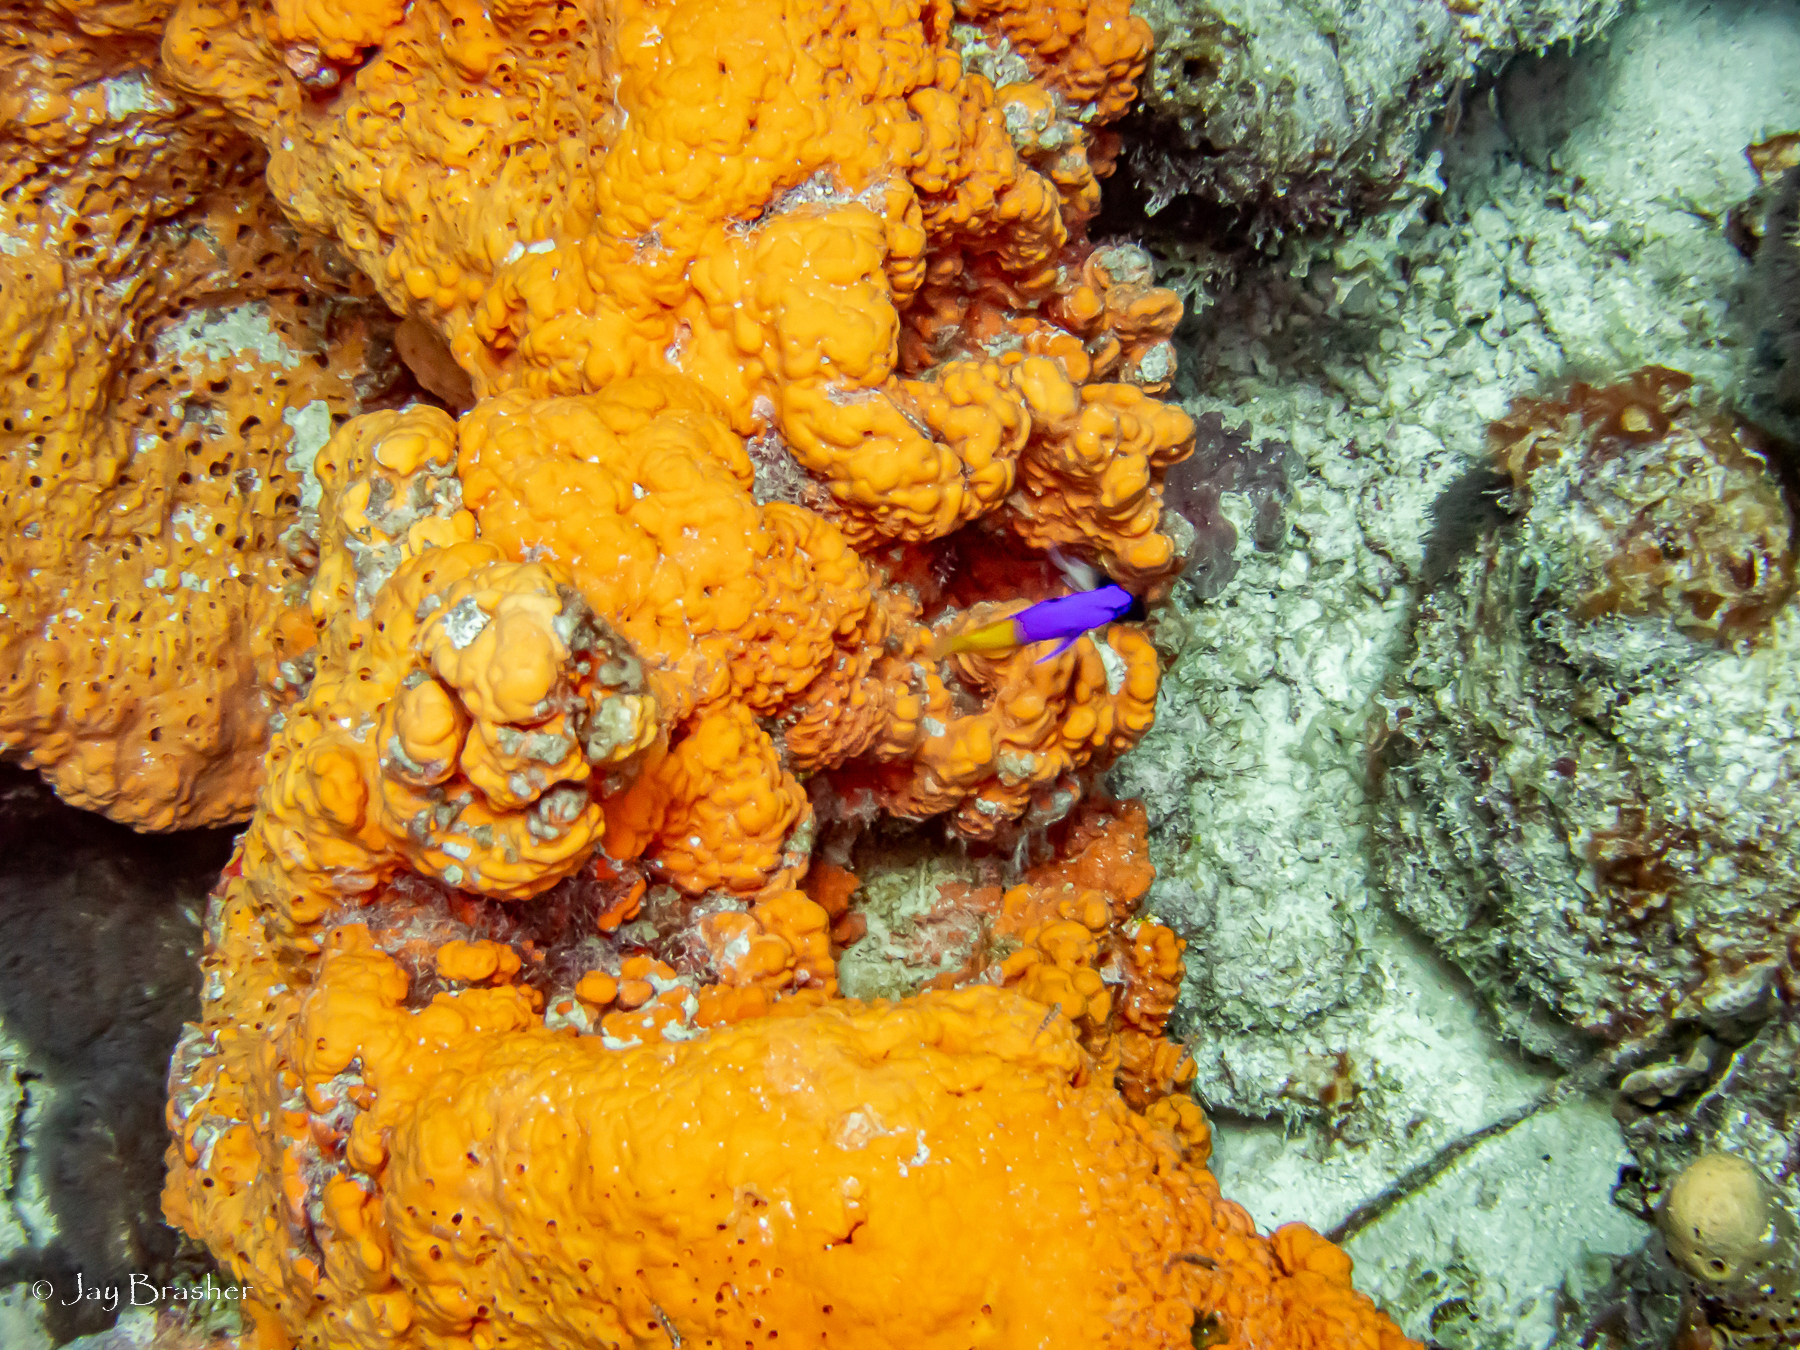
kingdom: Animalia
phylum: Chordata
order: Perciformes
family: Grammatidae
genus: Gramma
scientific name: Gramma loreto
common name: Fairy basslet
